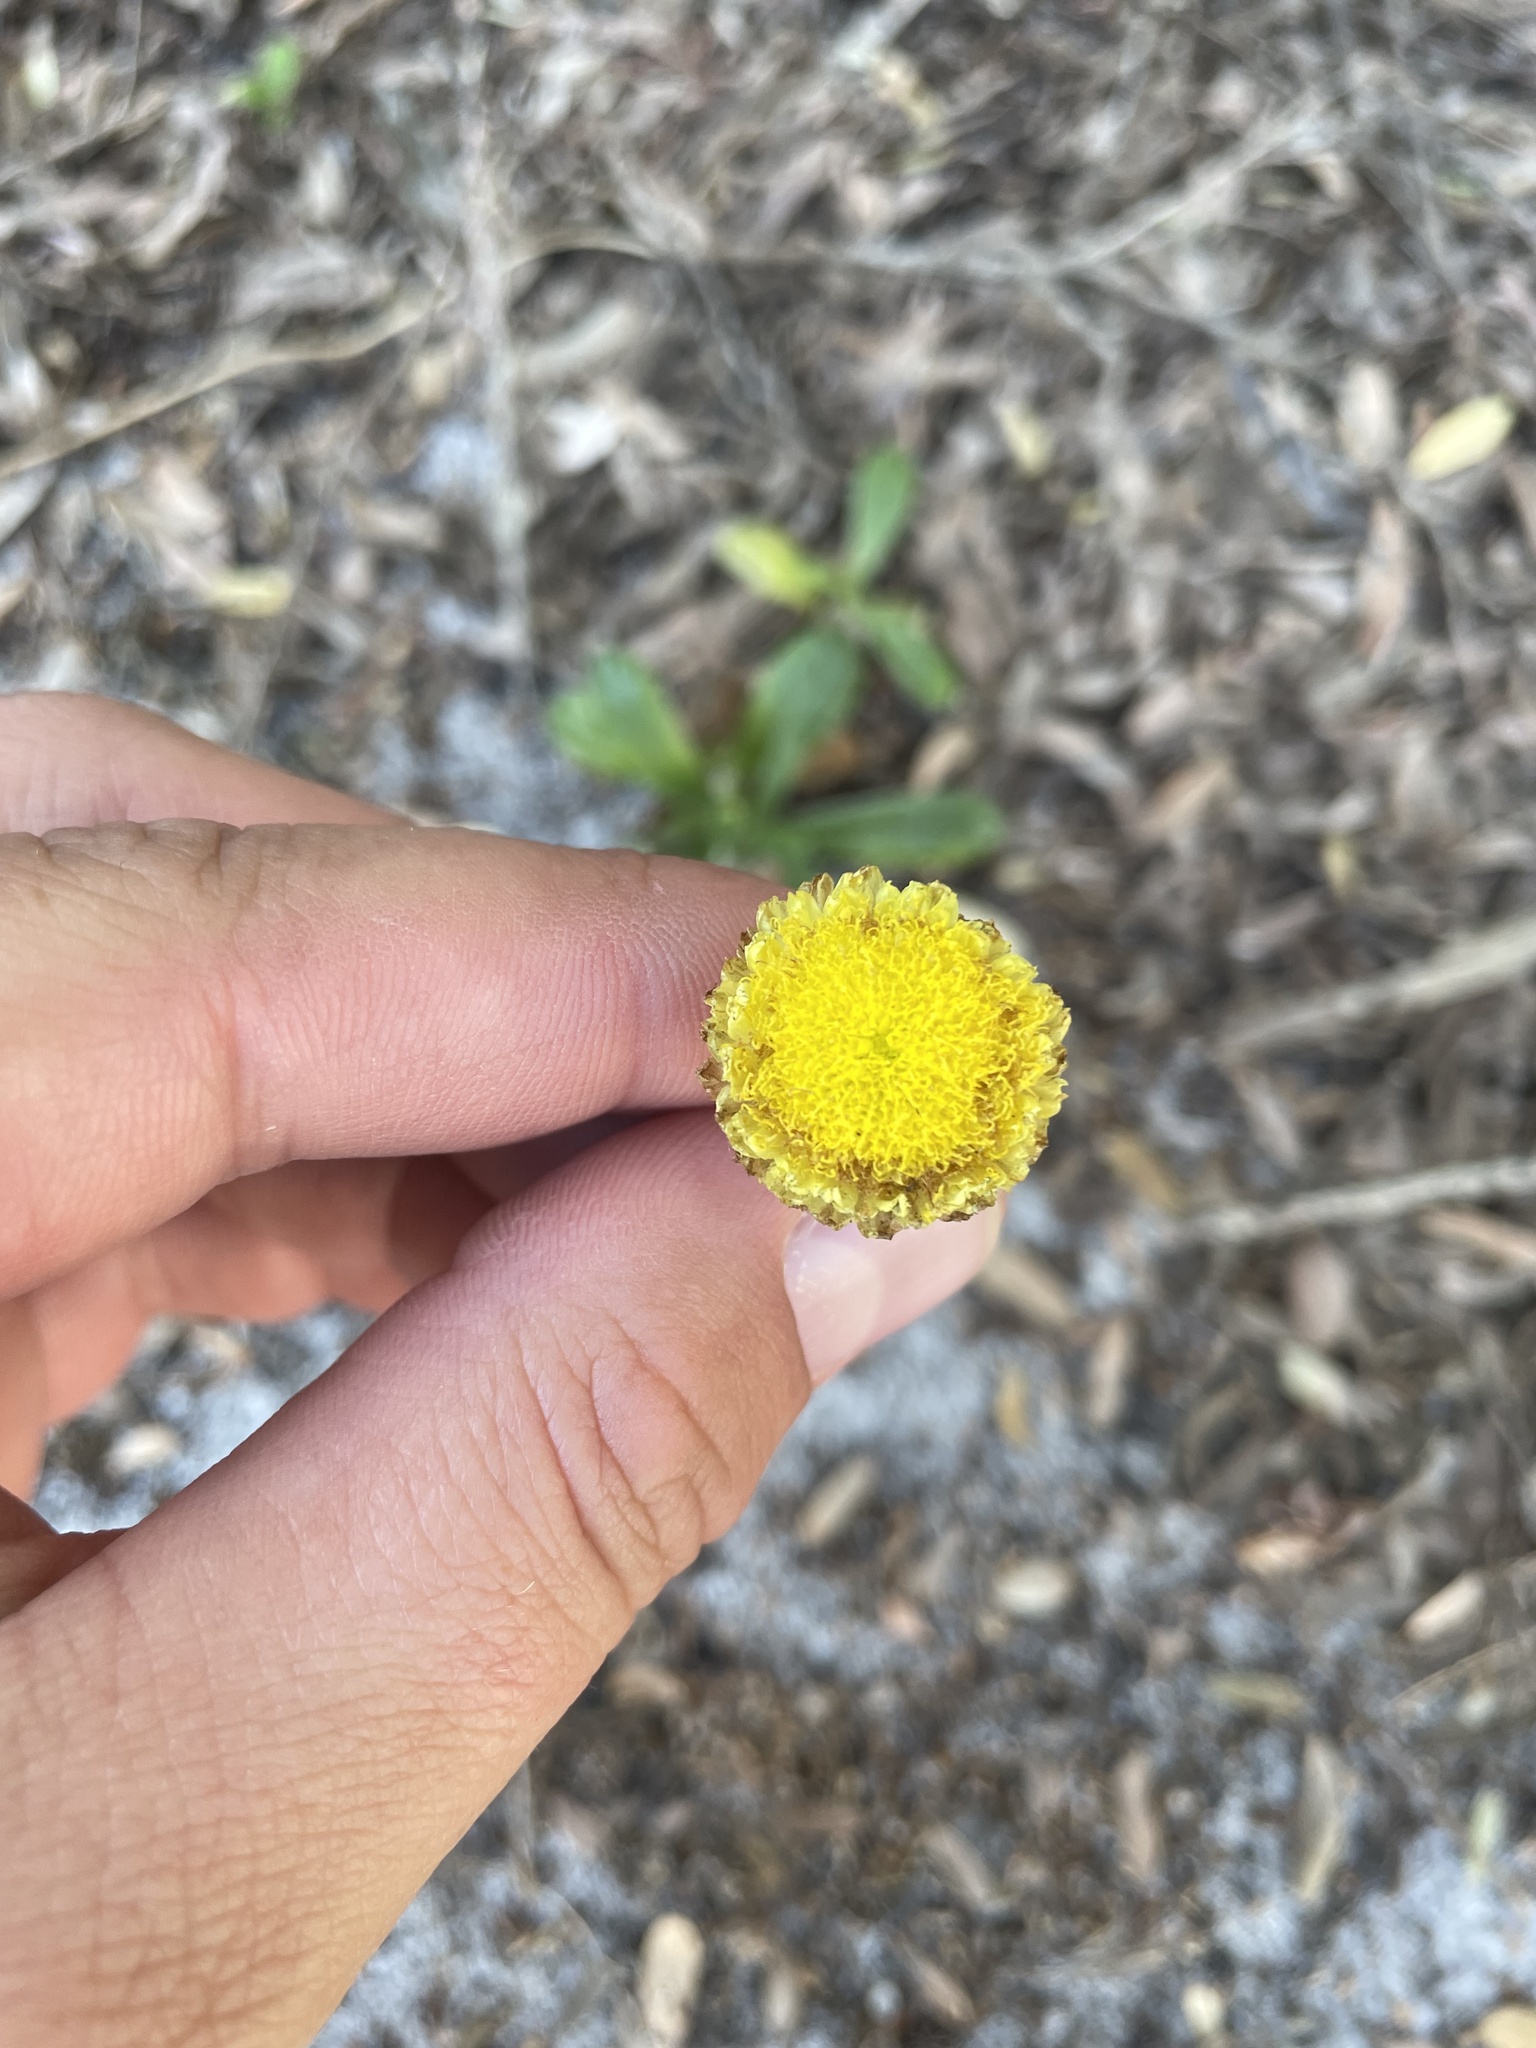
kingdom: Plantae
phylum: Tracheophyta
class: Magnoliopsida
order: Asterales
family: Asteraceae
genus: Coronidium
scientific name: Coronidium scorpioides
